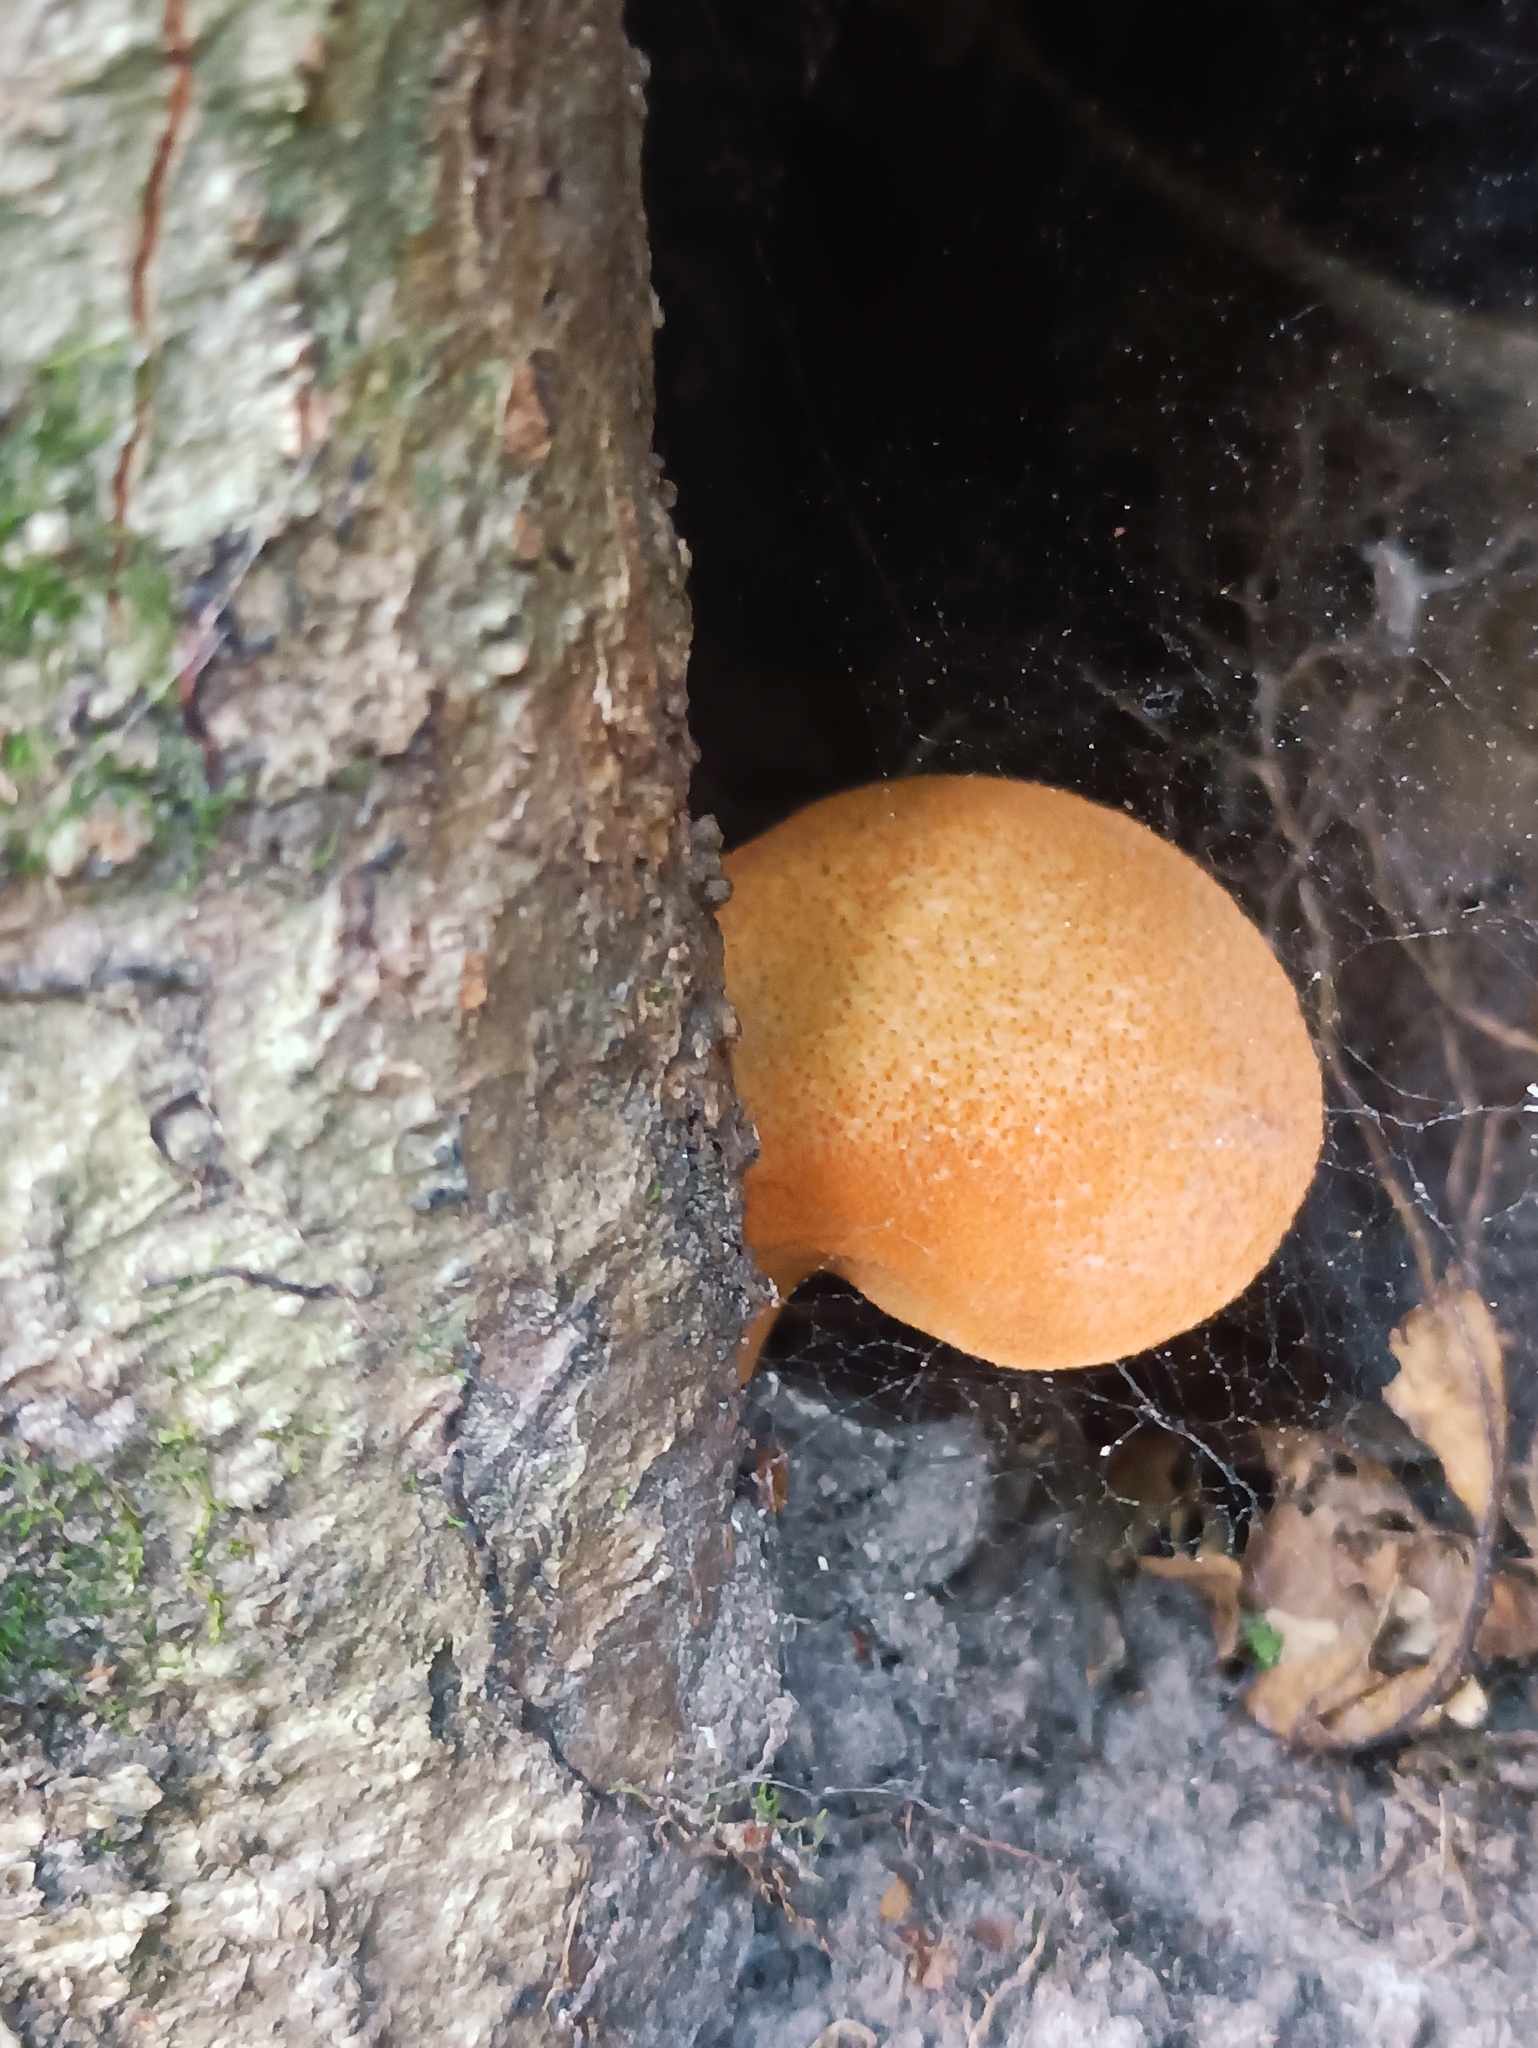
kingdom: Fungi
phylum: Basidiomycota
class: Agaricomycetes
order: Agaricales
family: Fistulinaceae
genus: Fistulina
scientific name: Fistulina hepatica
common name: Beef-steak fungus
